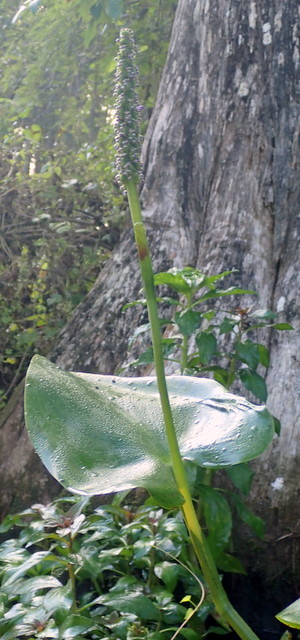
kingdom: Plantae
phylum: Tracheophyta
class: Liliopsida
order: Commelinales
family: Pontederiaceae
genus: Pontederia
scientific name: Pontederia cordata
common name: Pickerelweed
